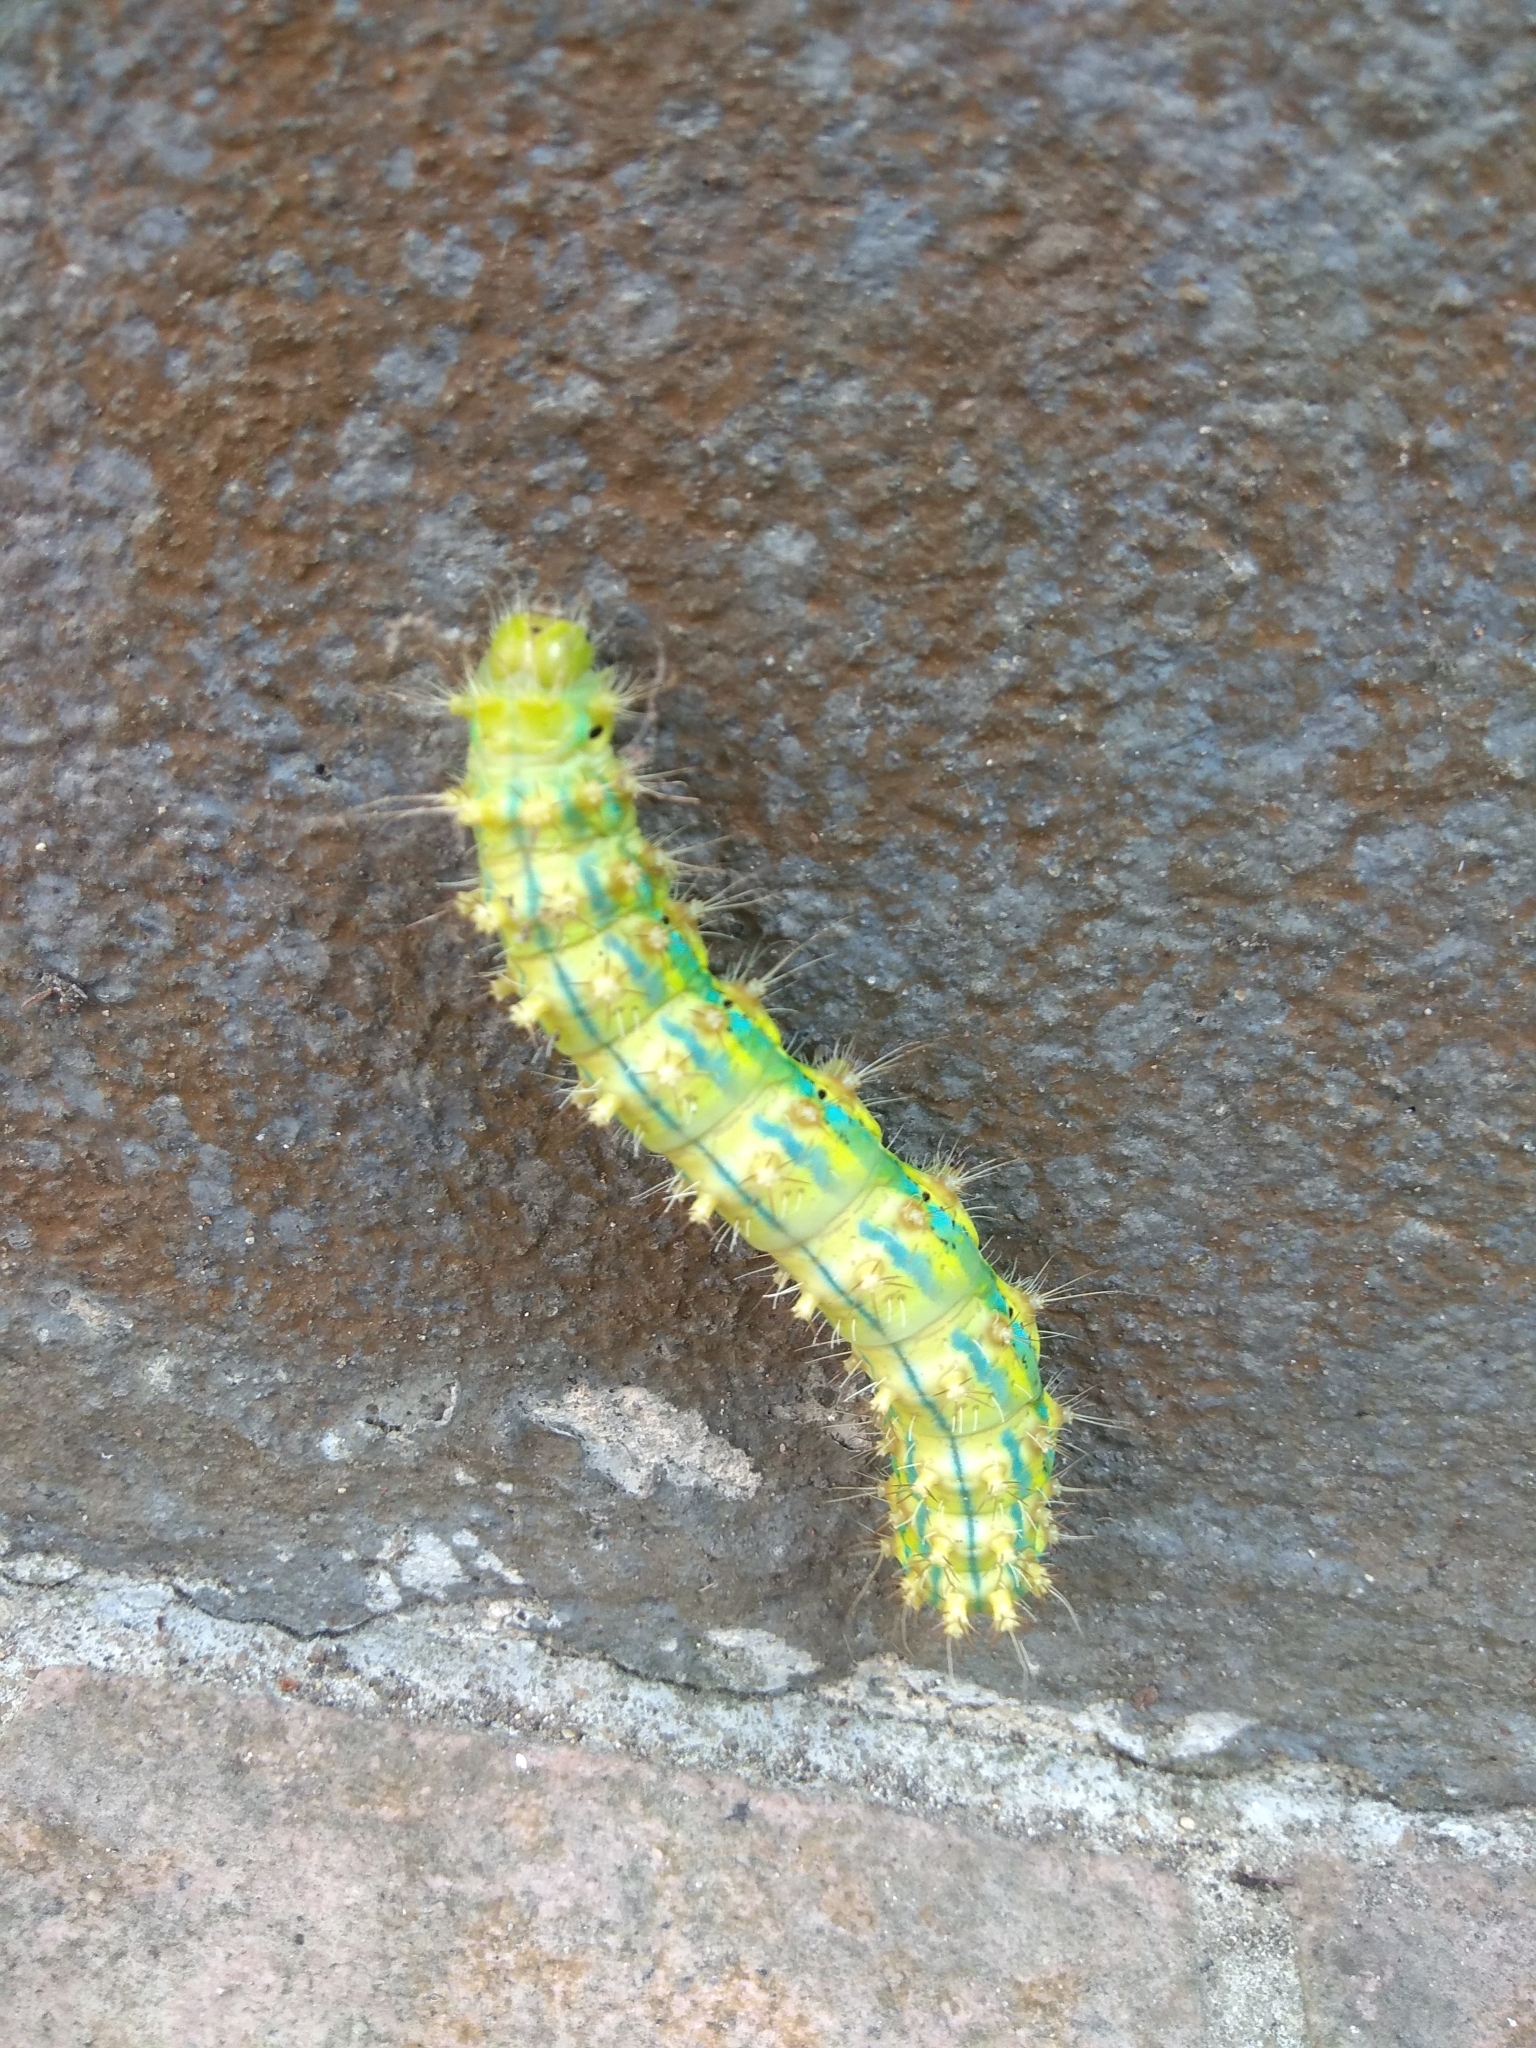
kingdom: Animalia
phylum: Arthropoda
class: Insecta
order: Lepidoptera
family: Saturniidae
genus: Saturnia
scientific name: Saturnia pyretorum
